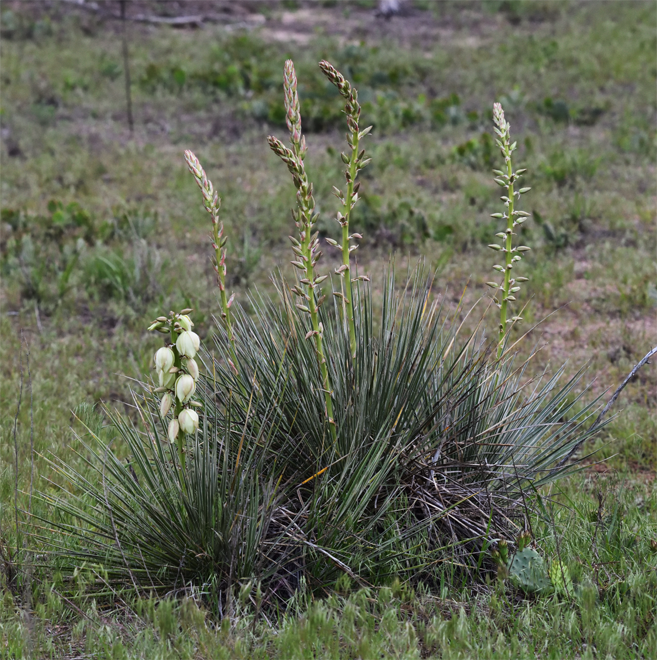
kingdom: Plantae
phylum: Tracheophyta
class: Liliopsida
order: Asparagales
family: Asparagaceae
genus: Yucca
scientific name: Yucca glauca
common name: Great plains yucca
